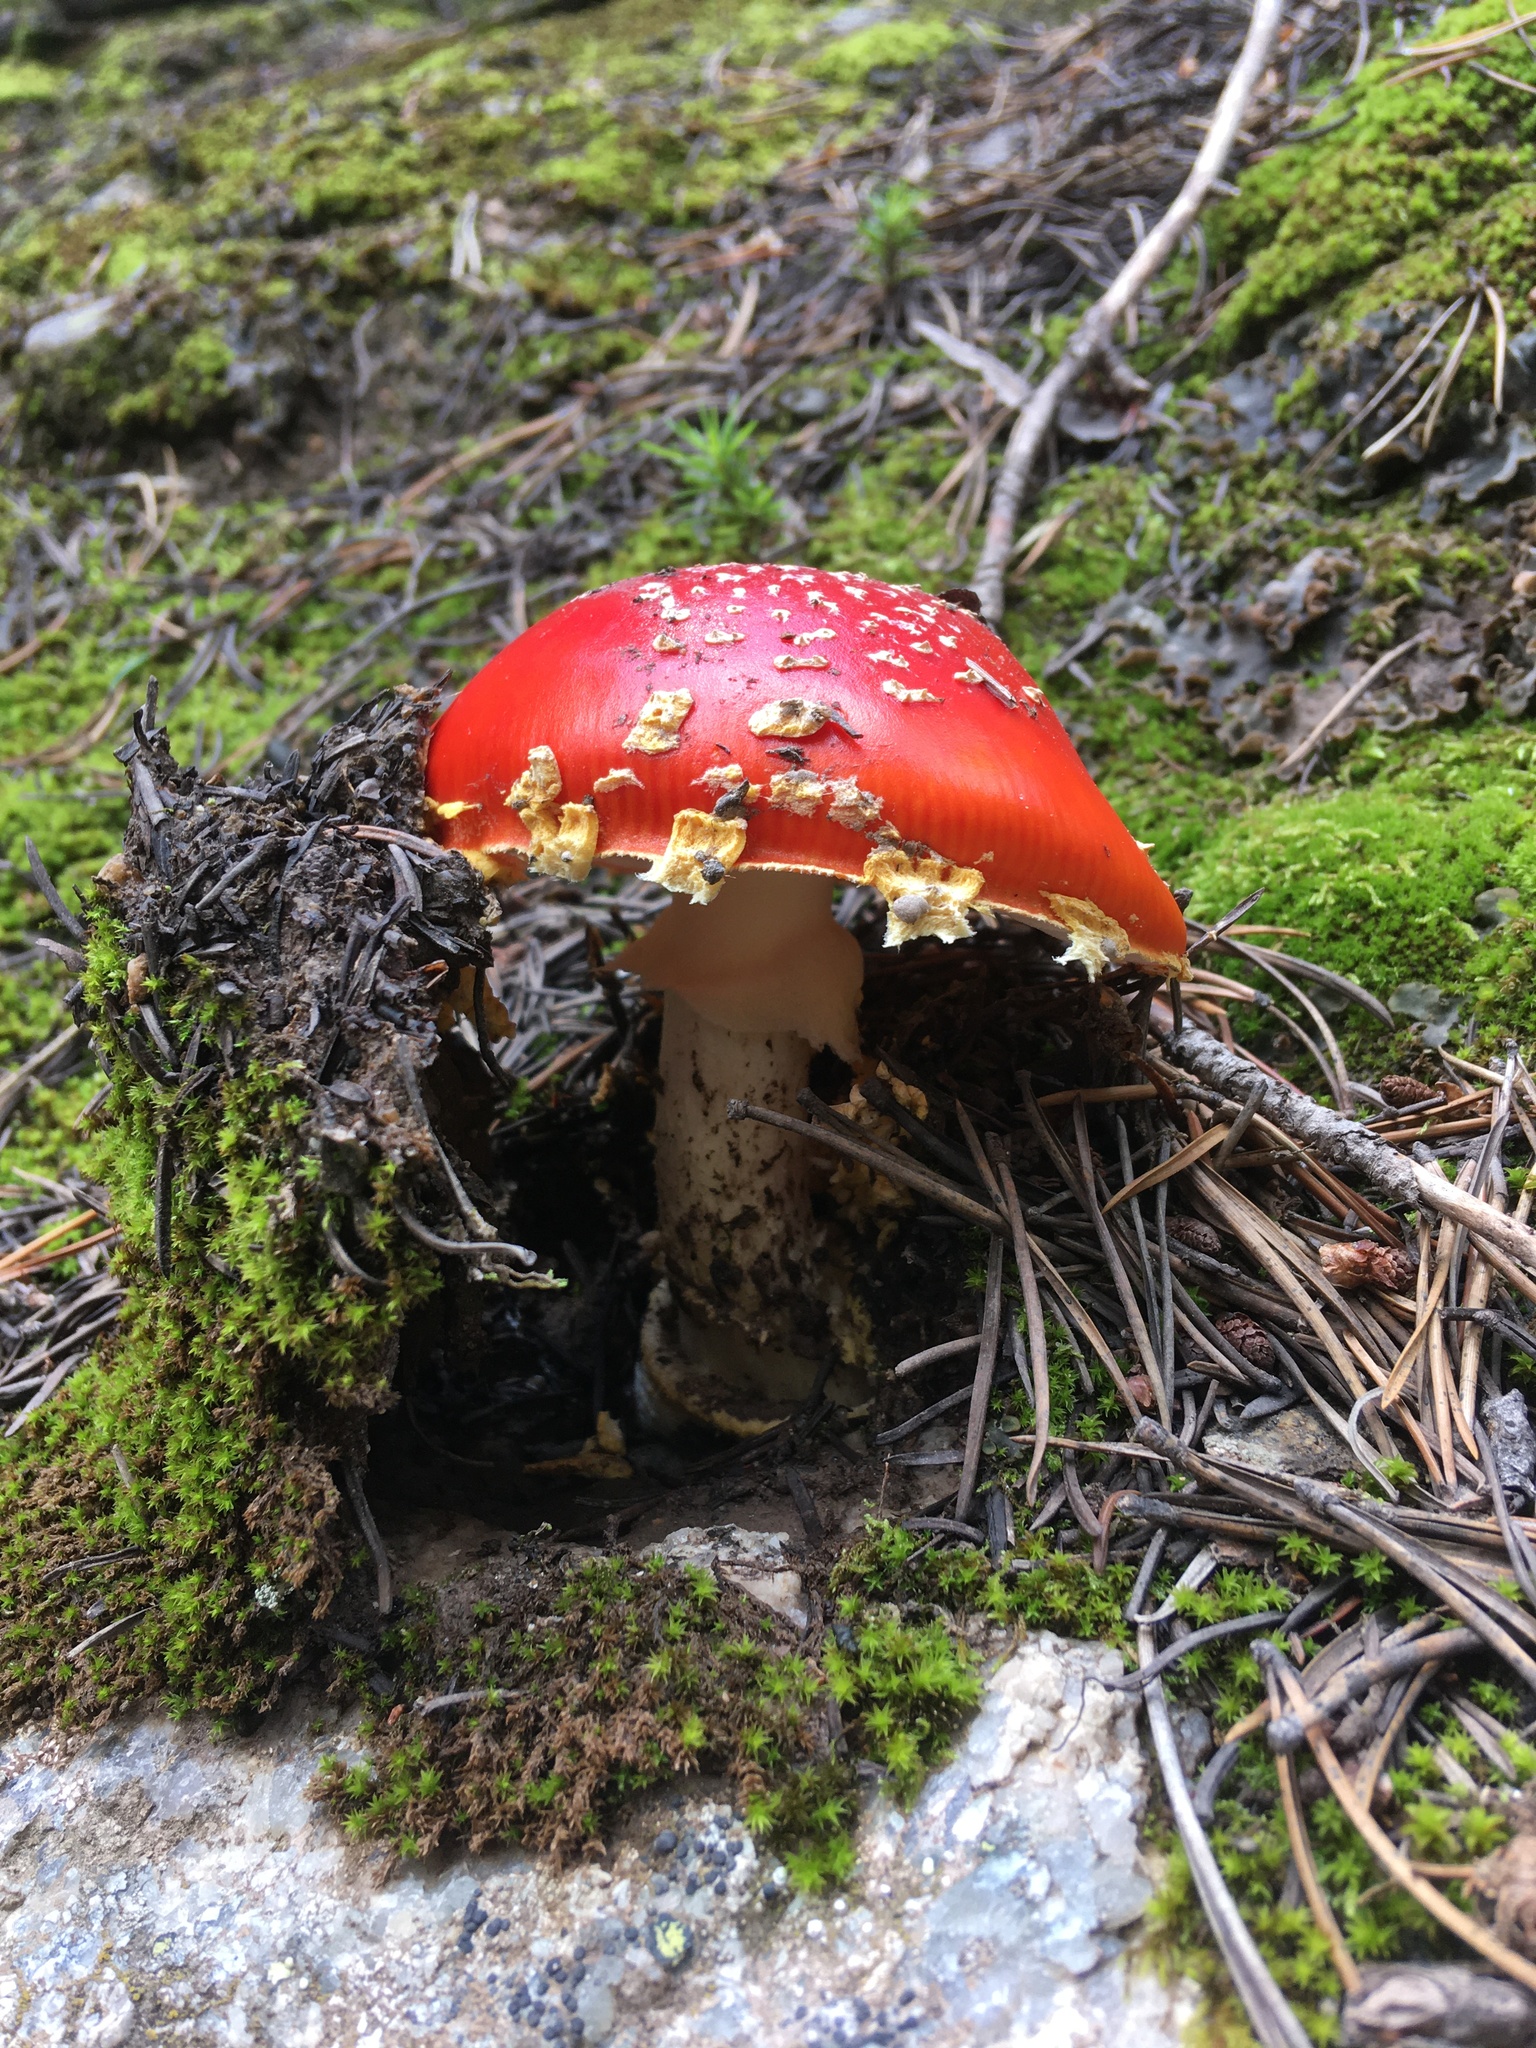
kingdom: Fungi
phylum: Basidiomycota
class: Agaricomycetes
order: Agaricales
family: Amanitaceae
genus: Amanita
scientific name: Amanita muscaria
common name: Fly agaric
